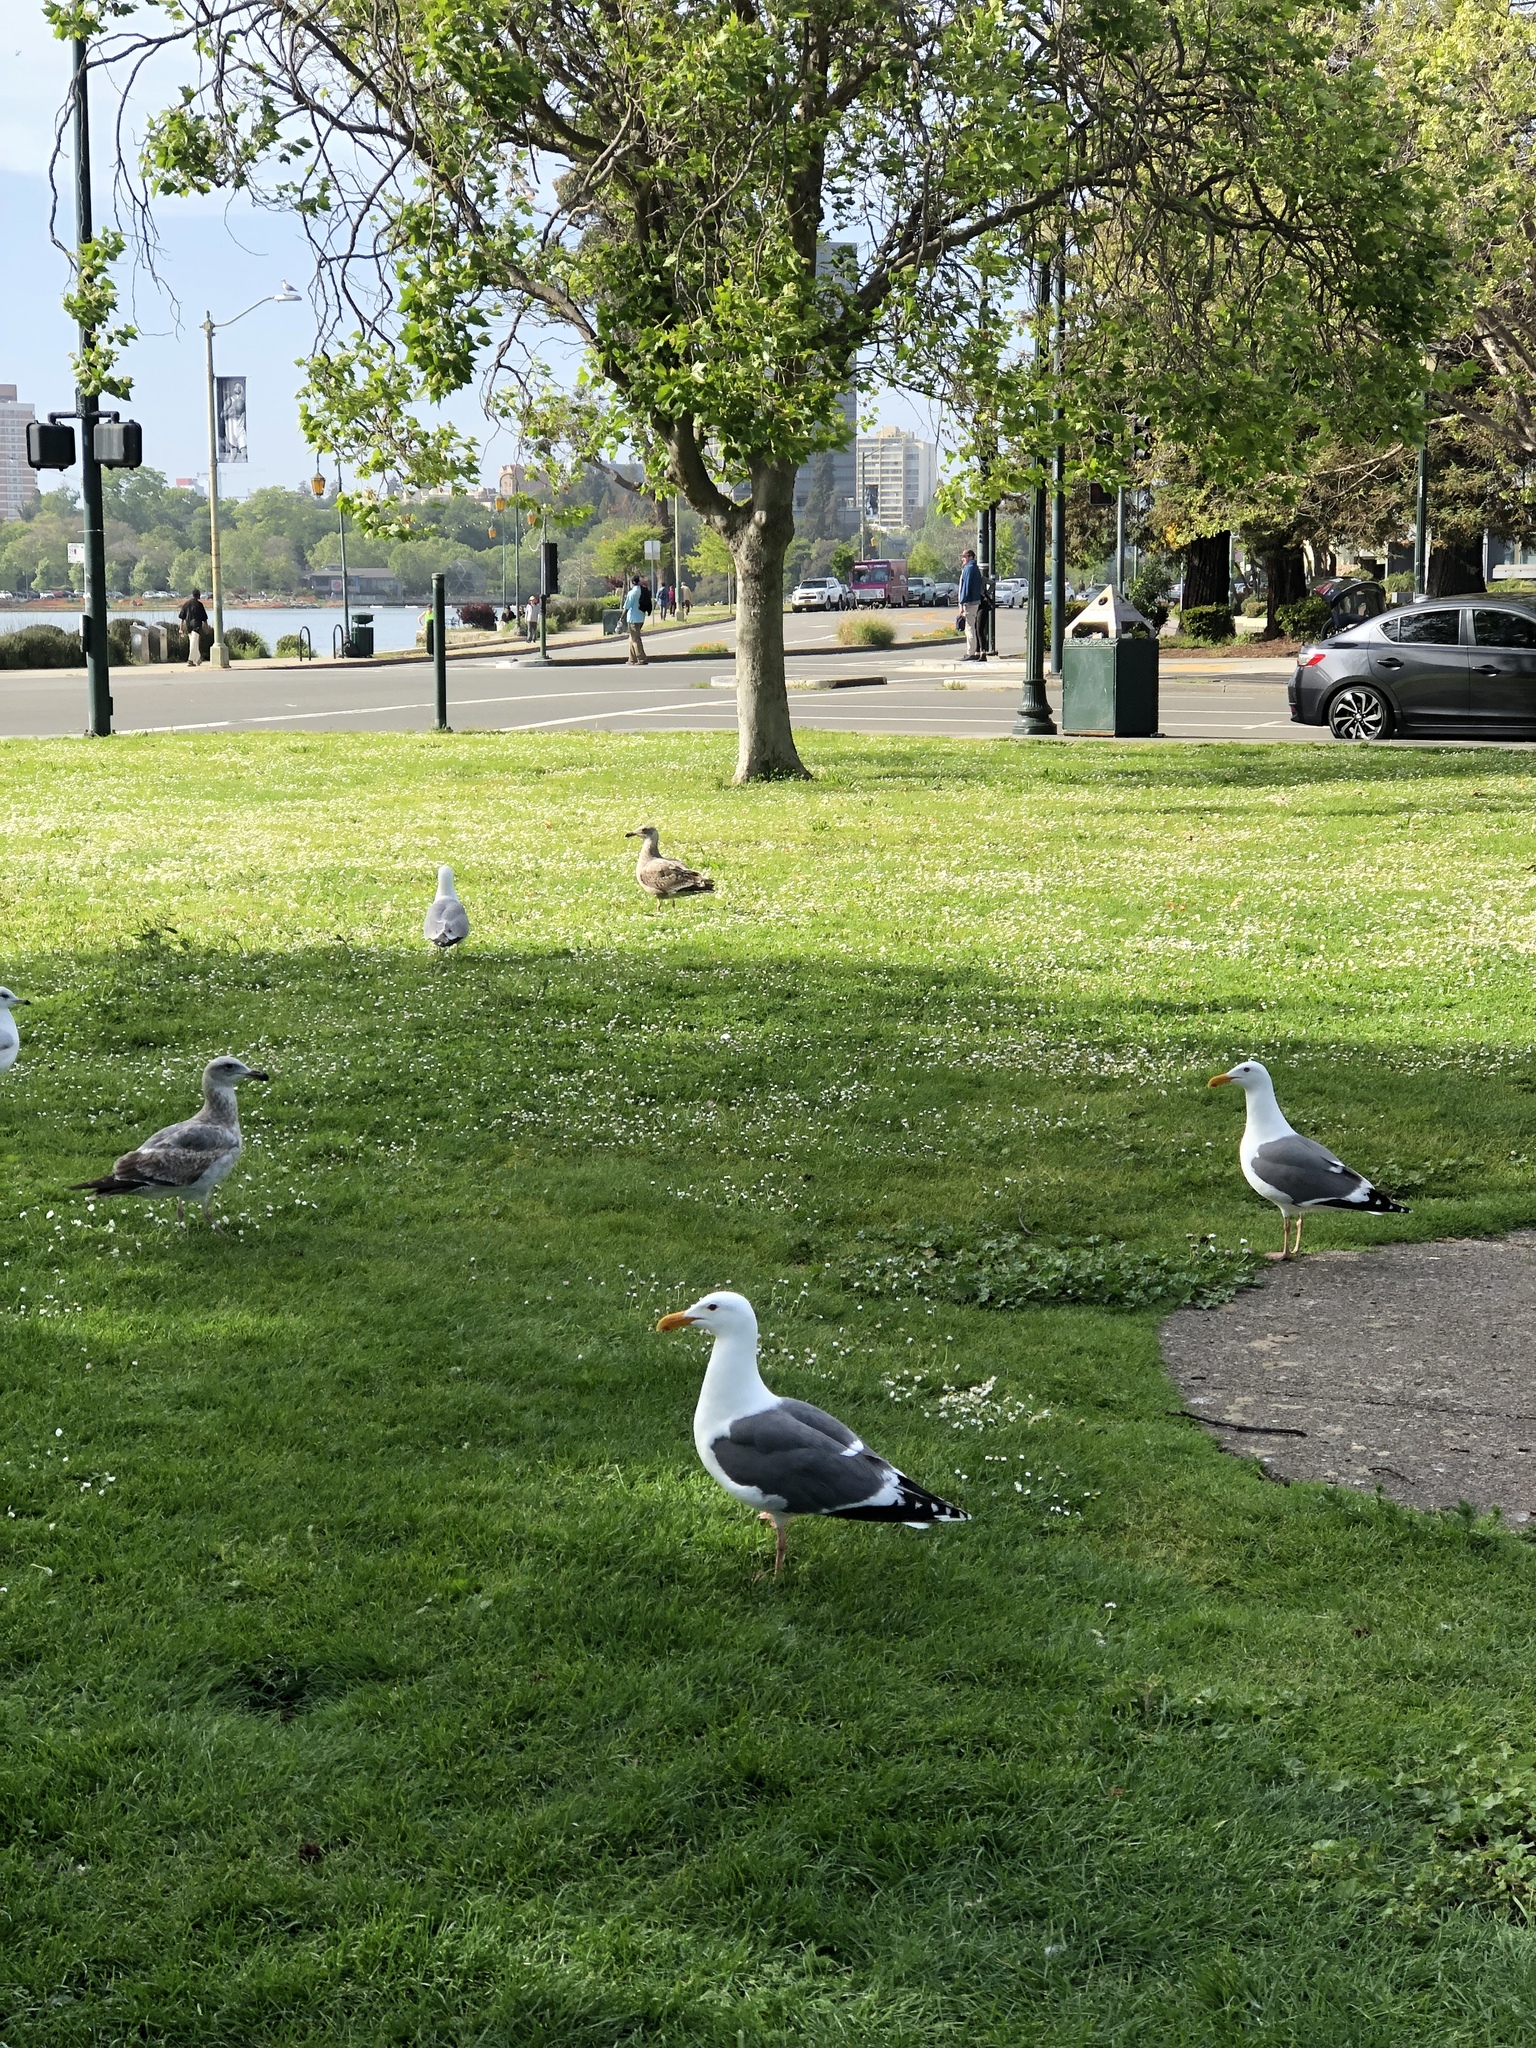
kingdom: Animalia
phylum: Chordata
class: Aves
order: Charadriiformes
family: Laridae
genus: Larus
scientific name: Larus occidentalis
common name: Western gull
